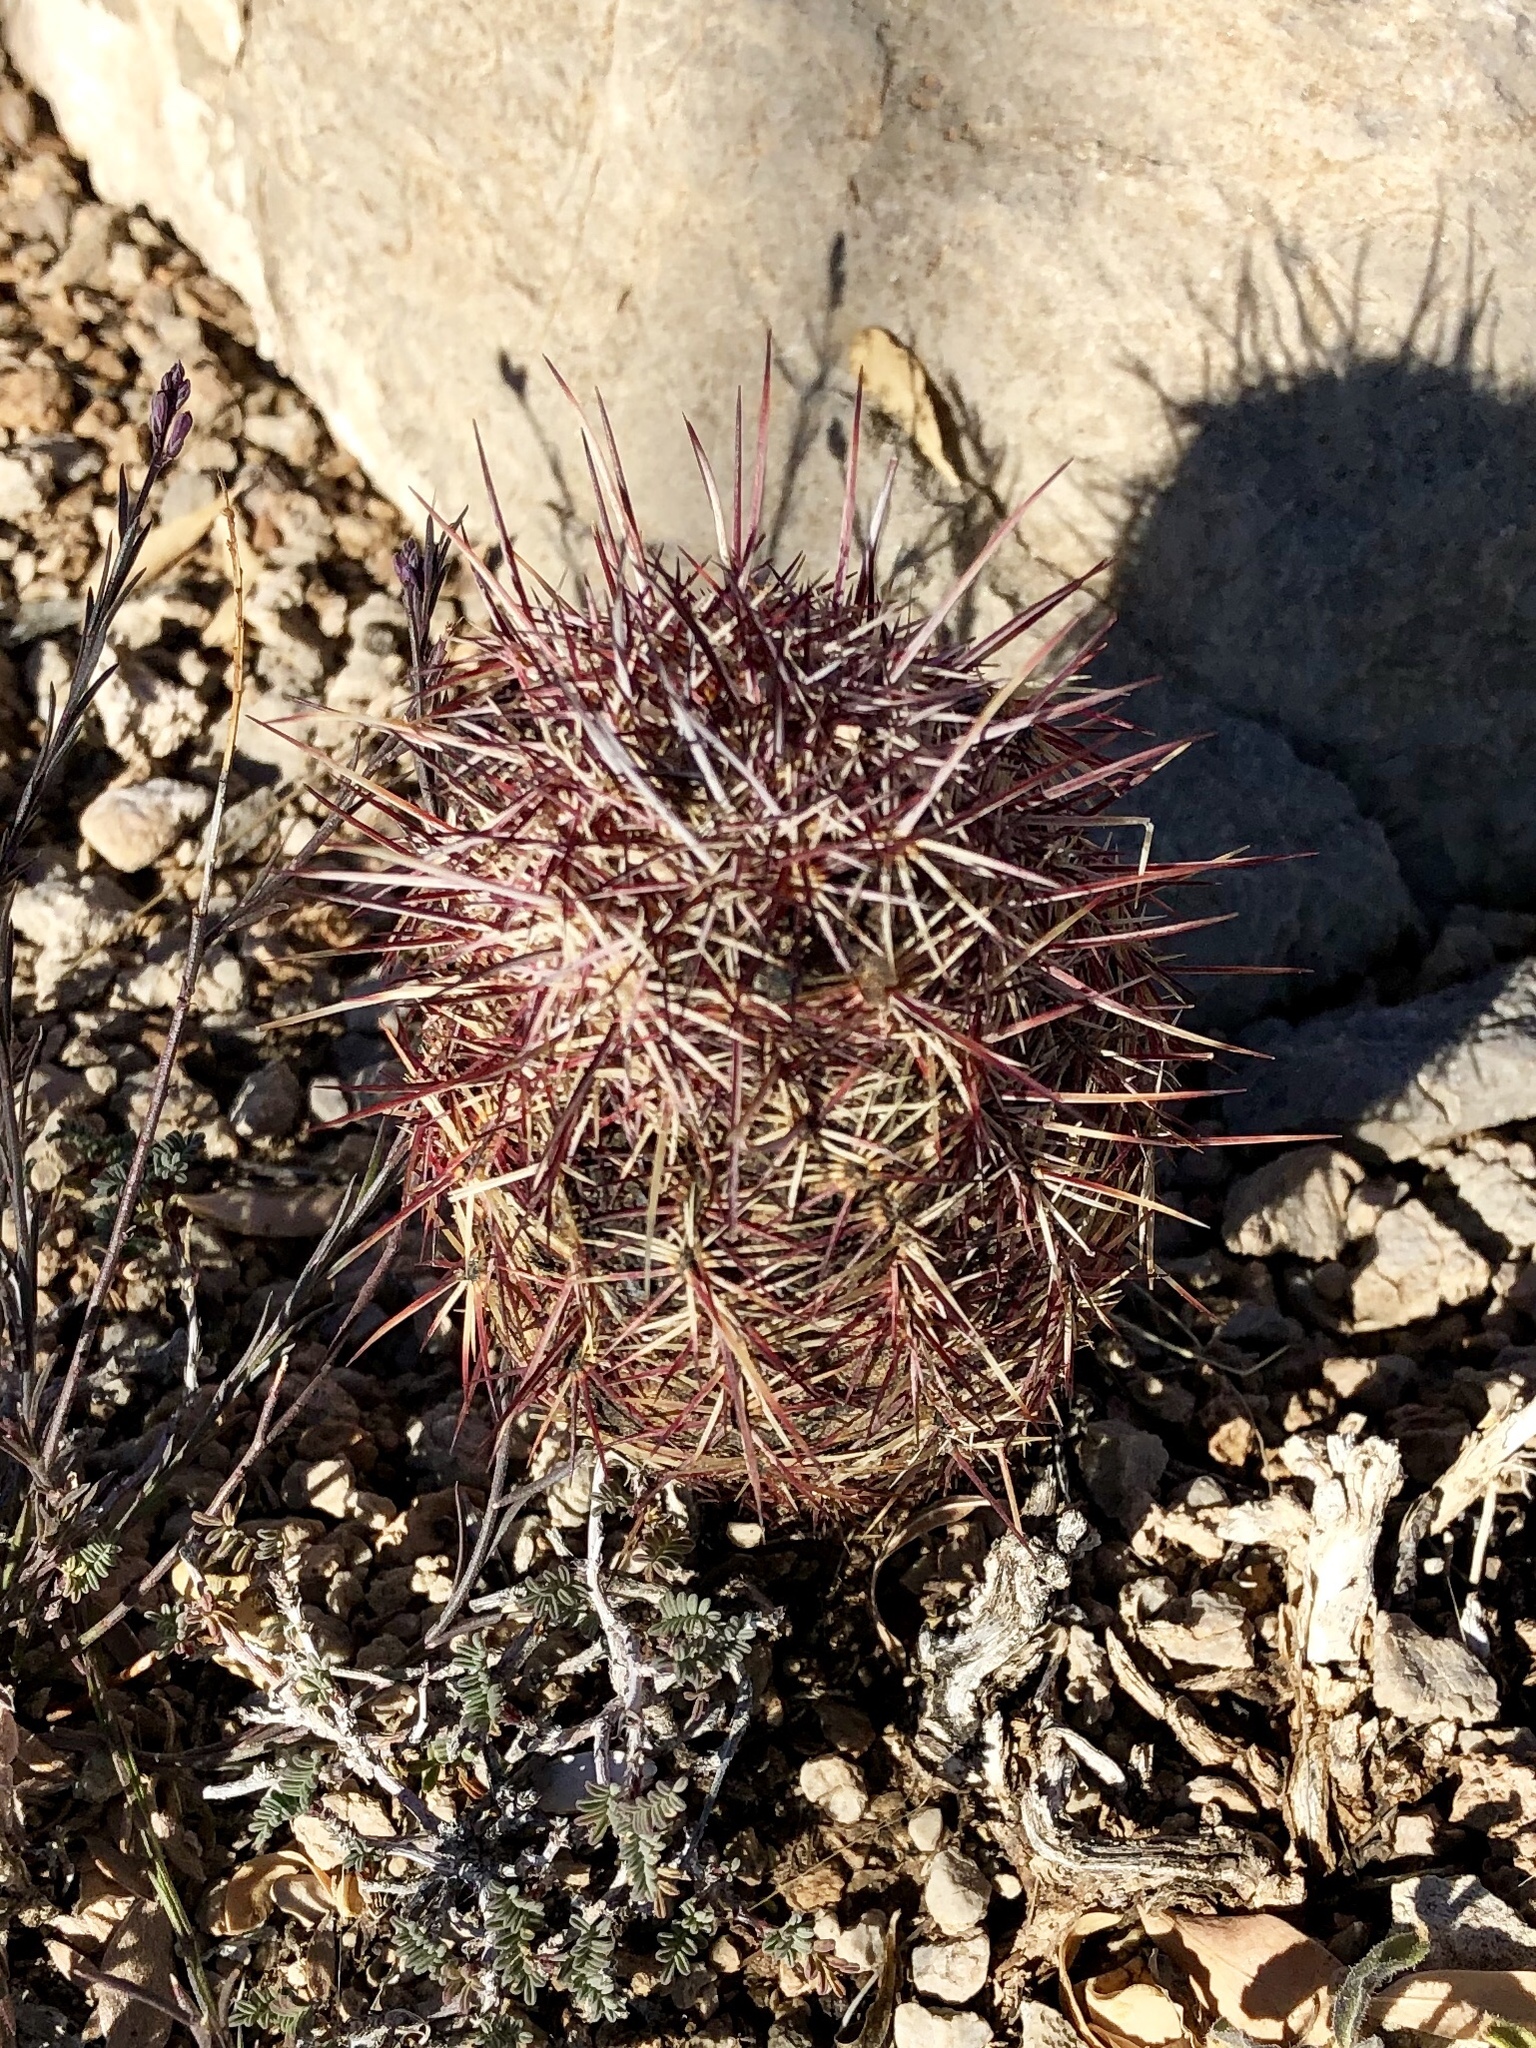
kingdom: Plantae
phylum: Tracheophyta
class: Magnoliopsida
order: Caryophyllales
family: Cactaceae
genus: Echinocereus
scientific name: Echinocereus viridiflorus
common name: Nylon hedgehog cactus
